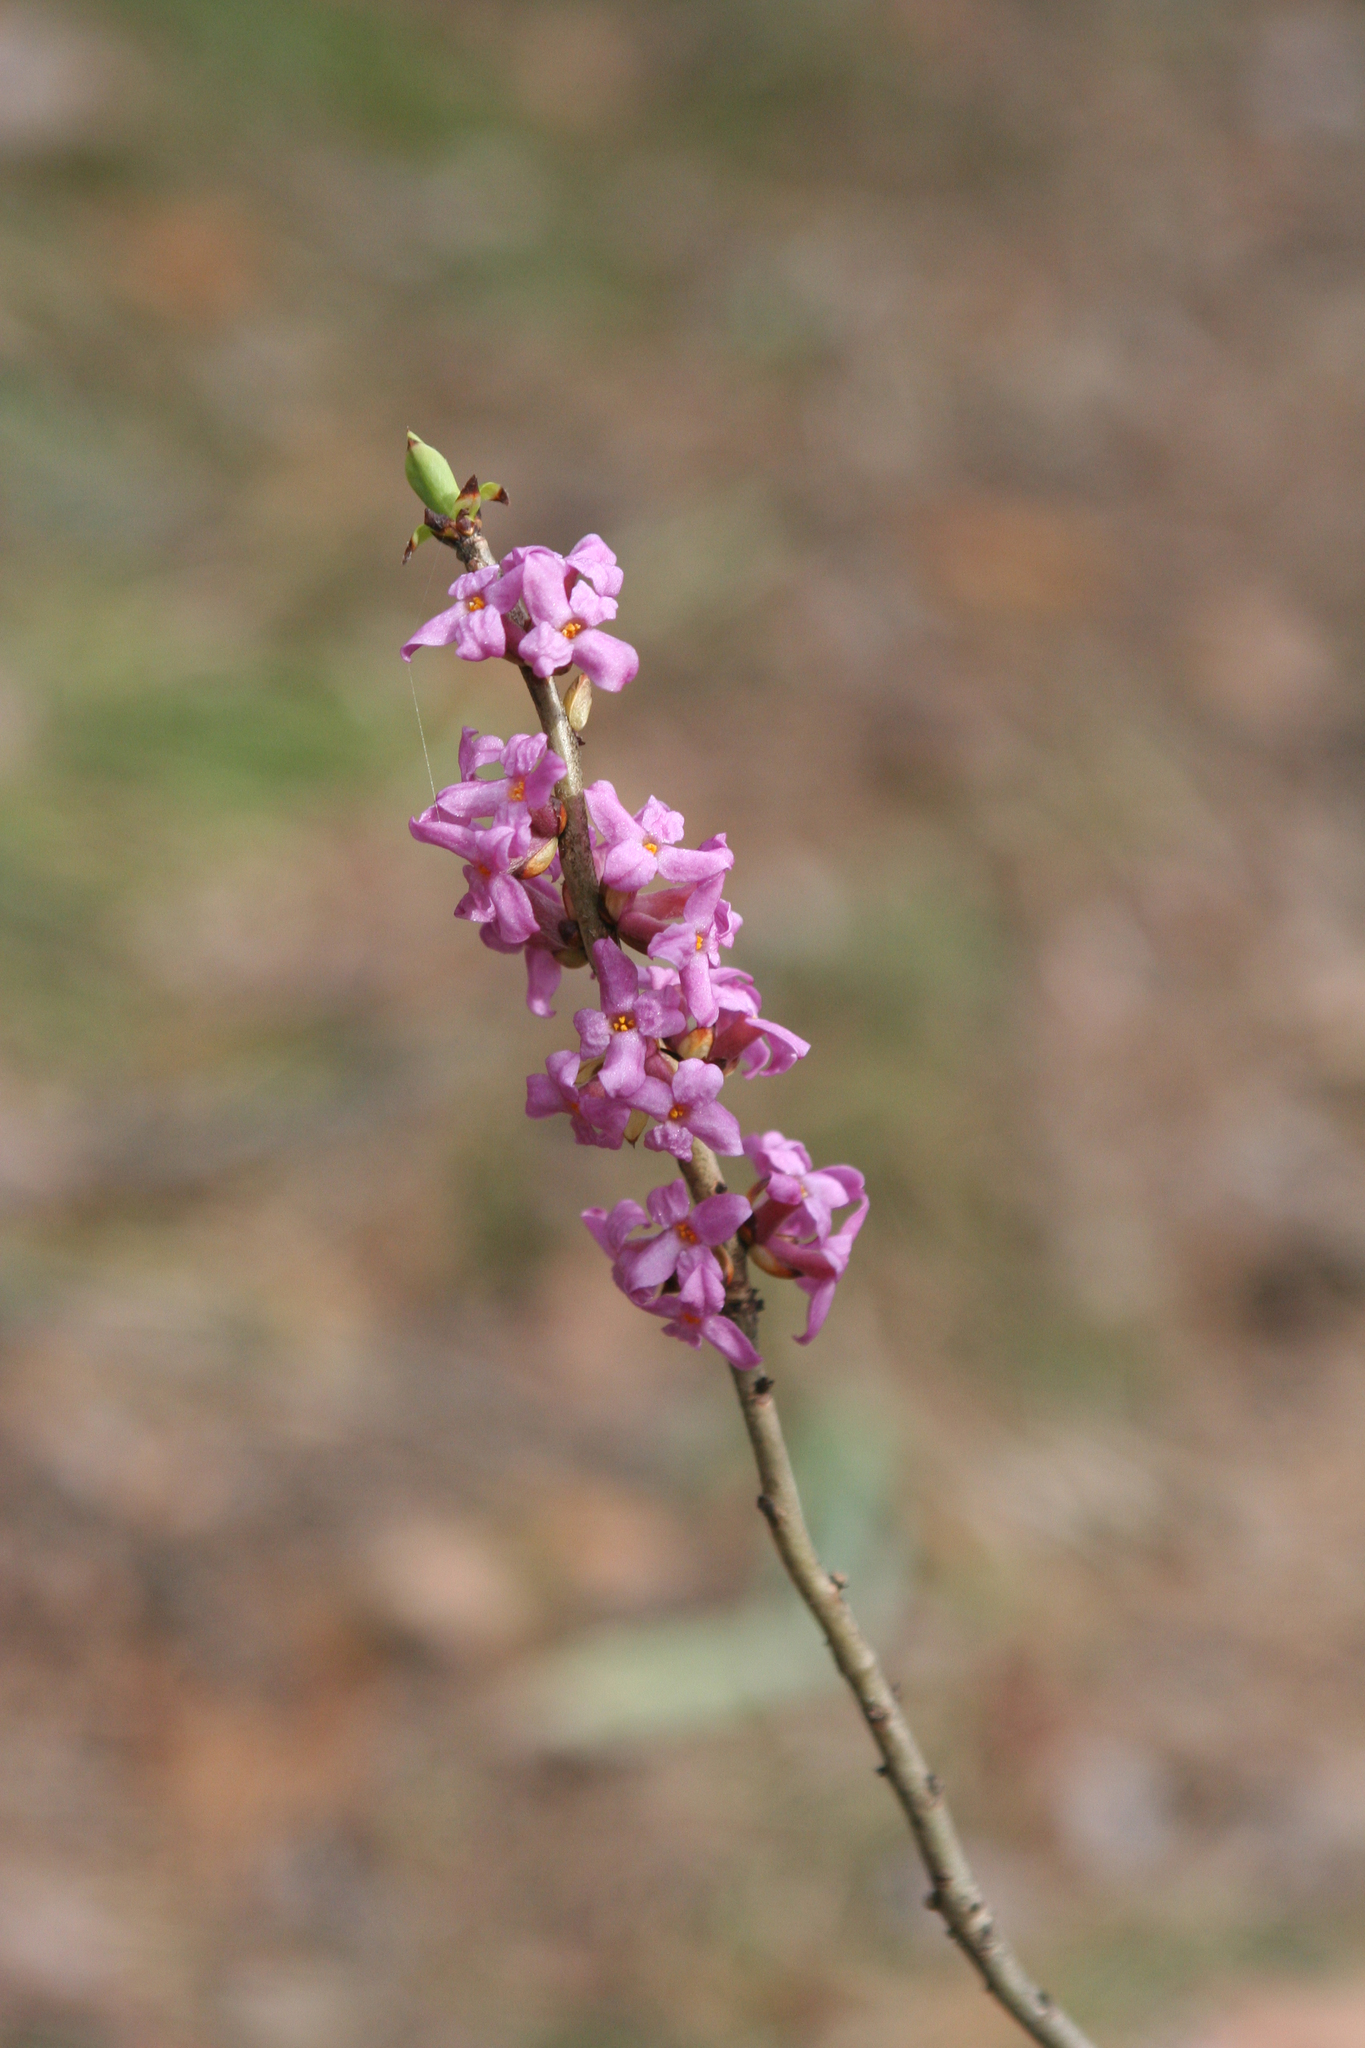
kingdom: Plantae
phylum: Tracheophyta
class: Magnoliopsida
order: Malvales
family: Thymelaeaceae
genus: Daphne
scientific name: Daphne mezereum
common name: Mezereon
